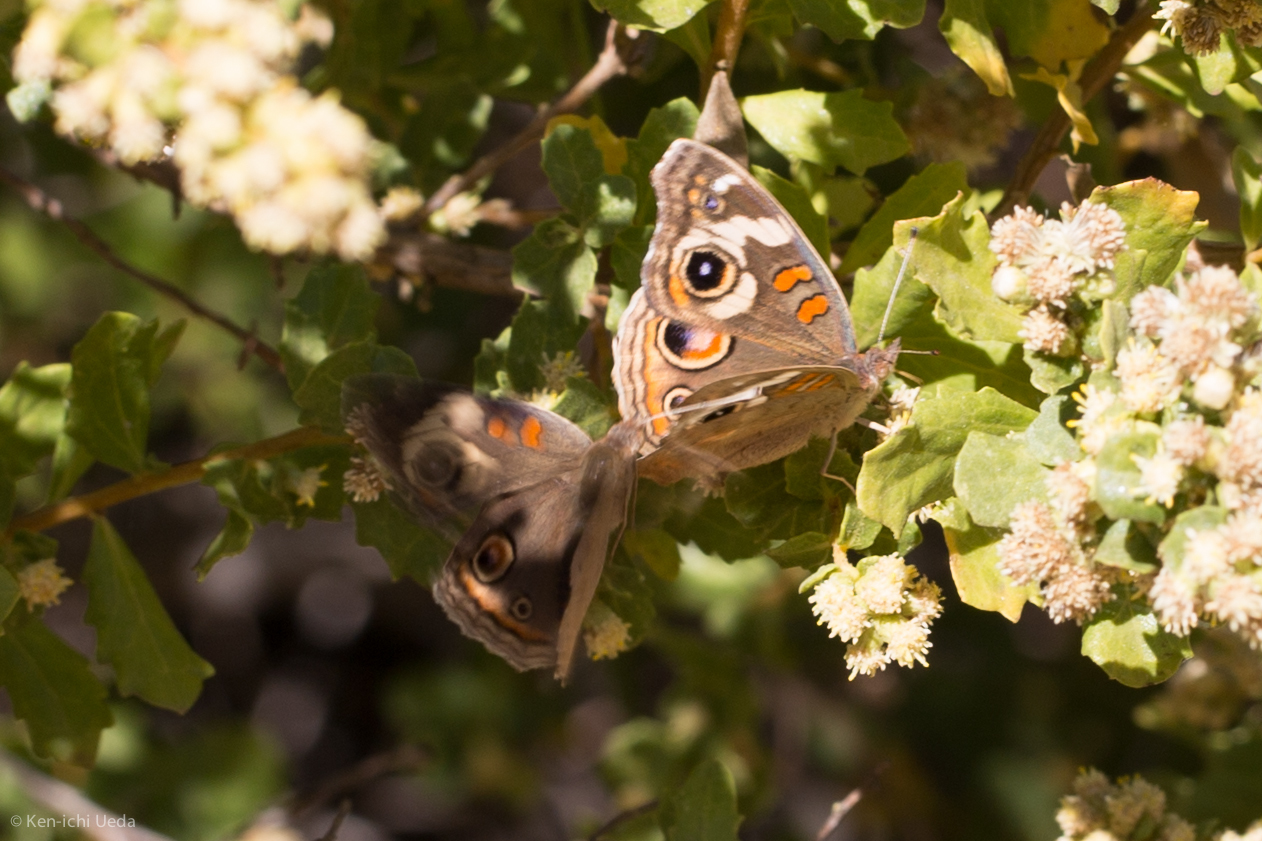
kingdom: Animalia
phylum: Arthropoda
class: Insecta
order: Lepidoptera
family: Nymphalidae
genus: Junonia
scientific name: Junonia grisea
